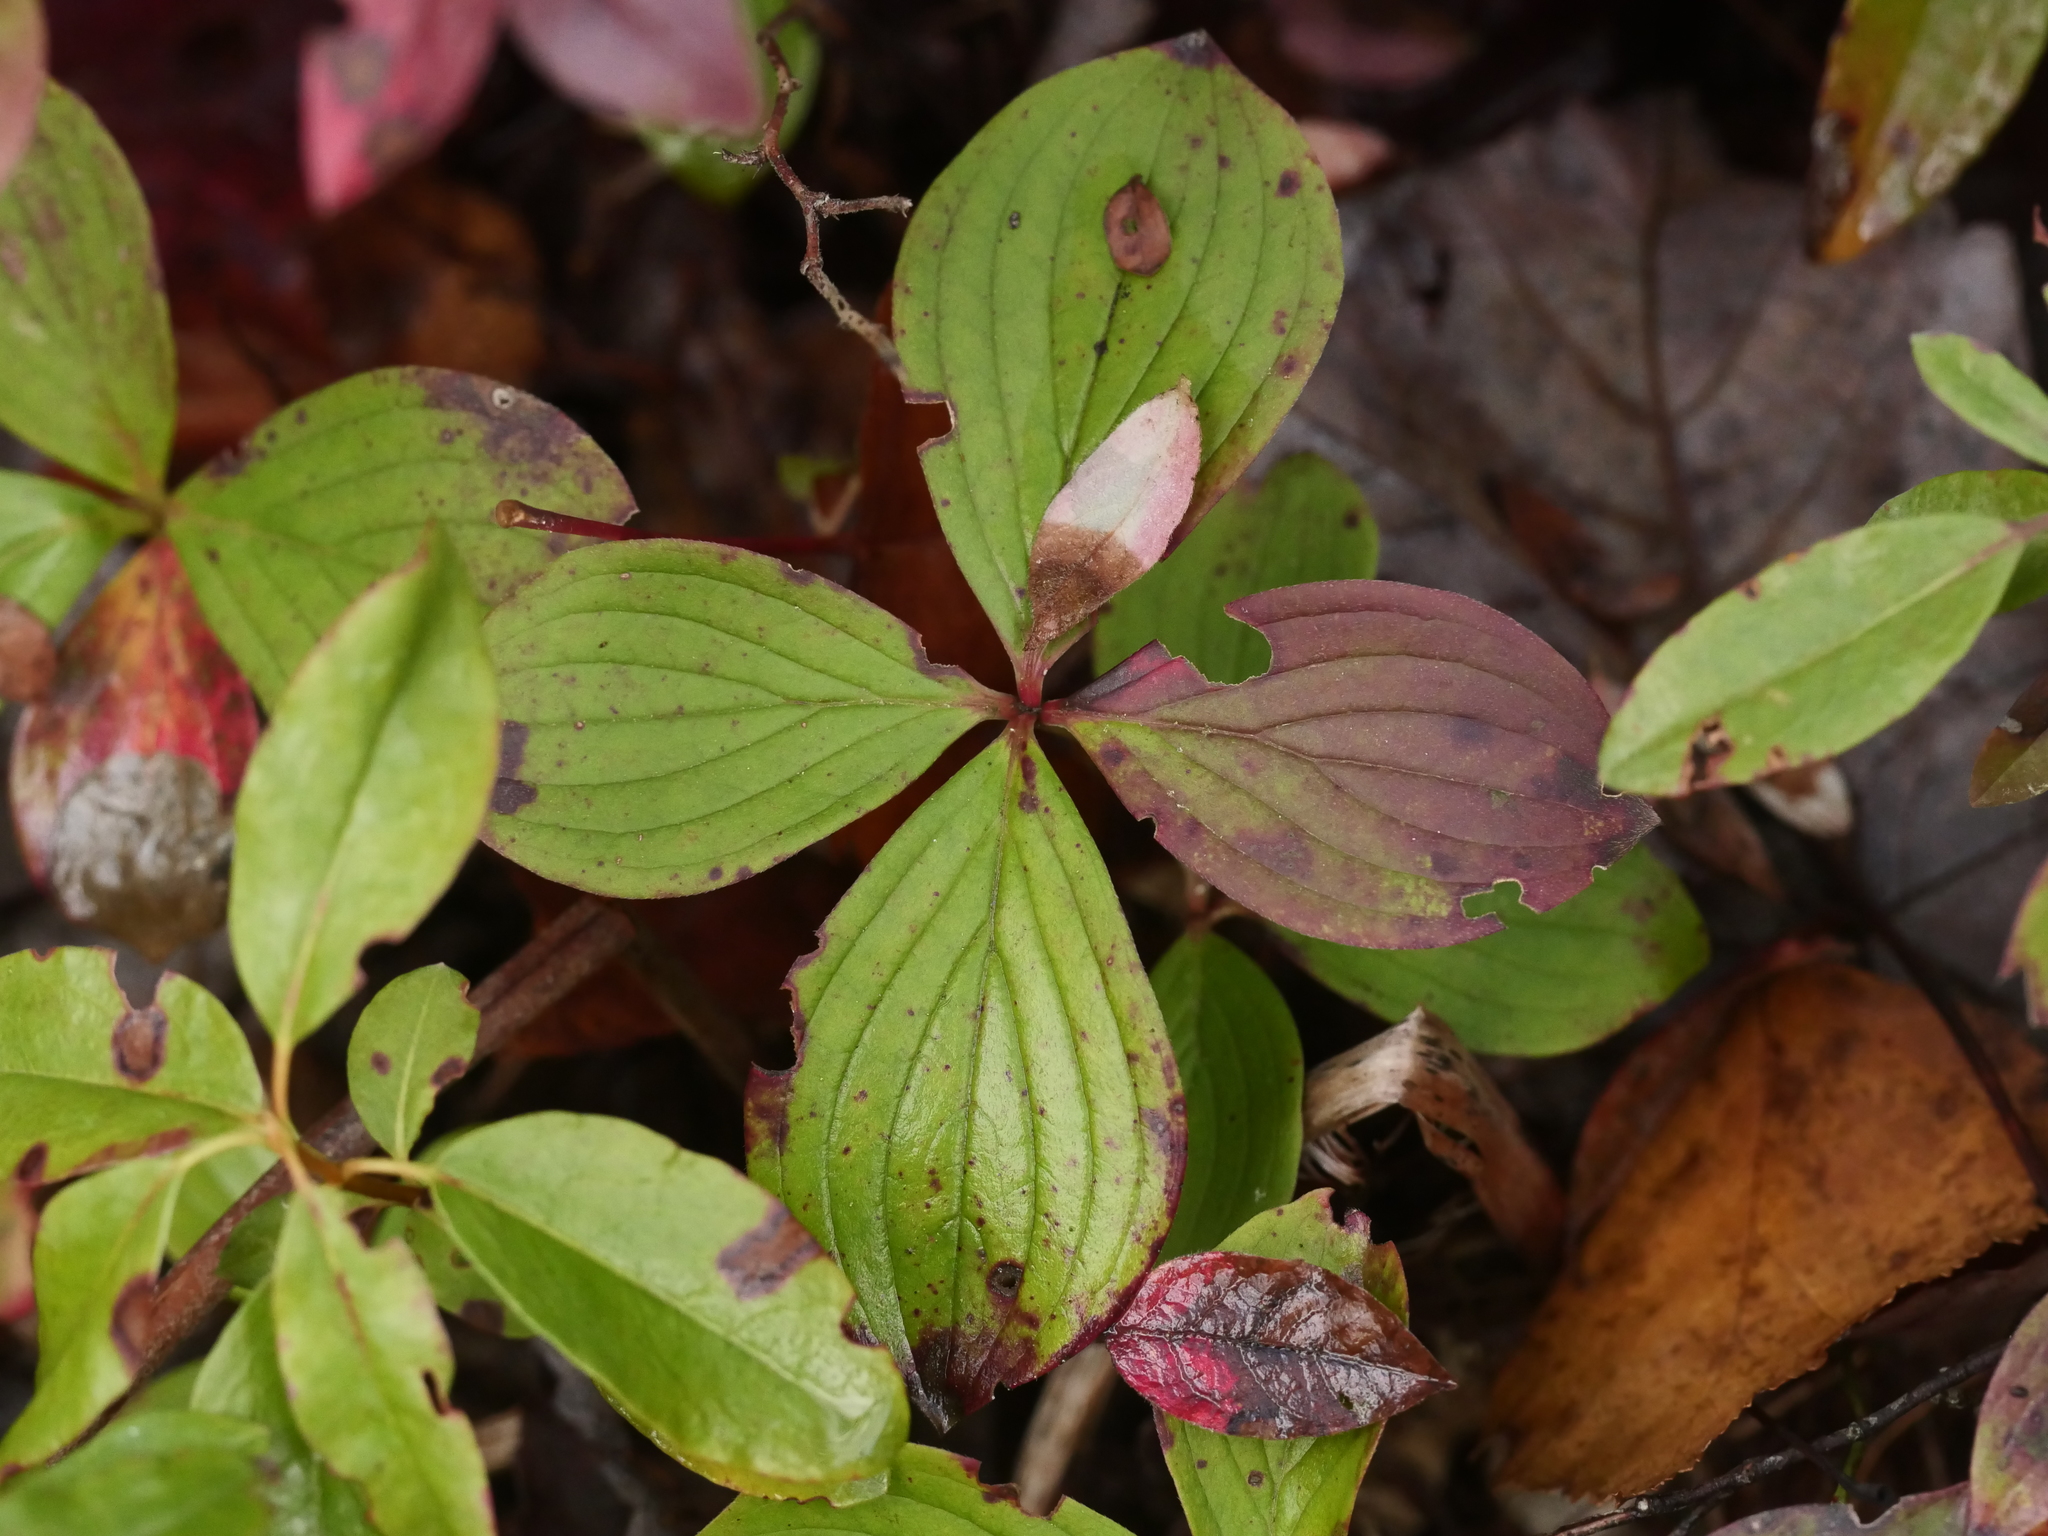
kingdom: Plantae
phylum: Tracheophyta
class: Magnoliopsida
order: Cornales
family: Cornaceae
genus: Cornus
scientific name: Cornus canadensis
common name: Creeping dogwood
